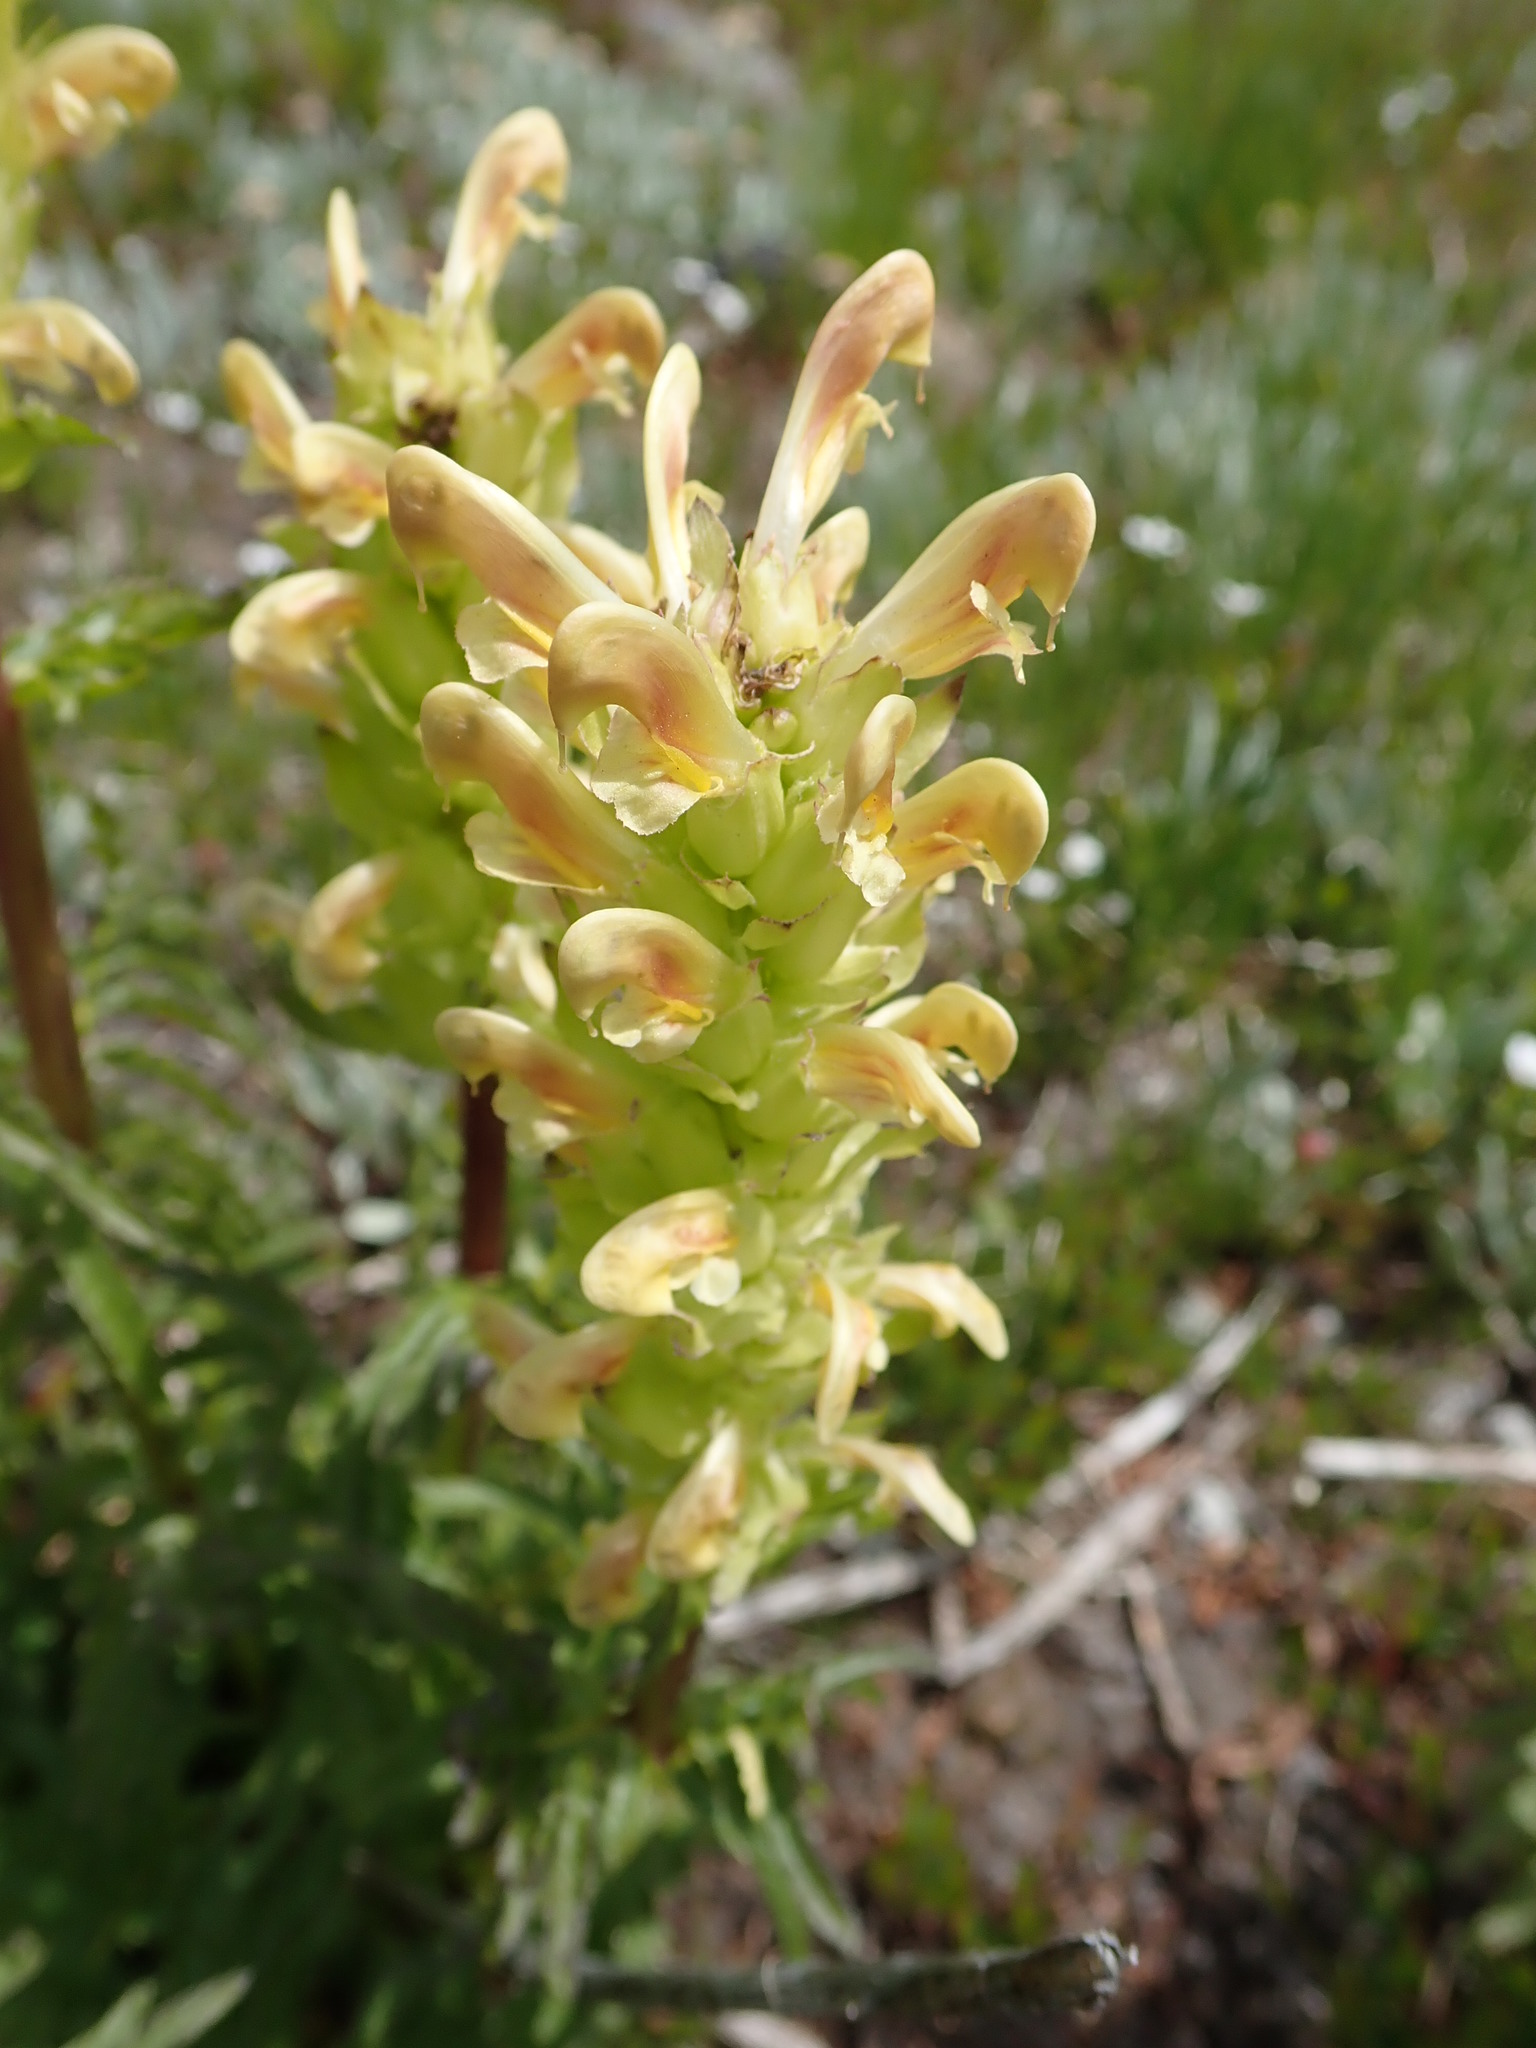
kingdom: Plantae
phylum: Tracheophyta
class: Magnoliopsida
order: Lamiales
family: Orobanchaceae
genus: Pedicularis
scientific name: Pedicularis bracteosa
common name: Bracted lousewort
